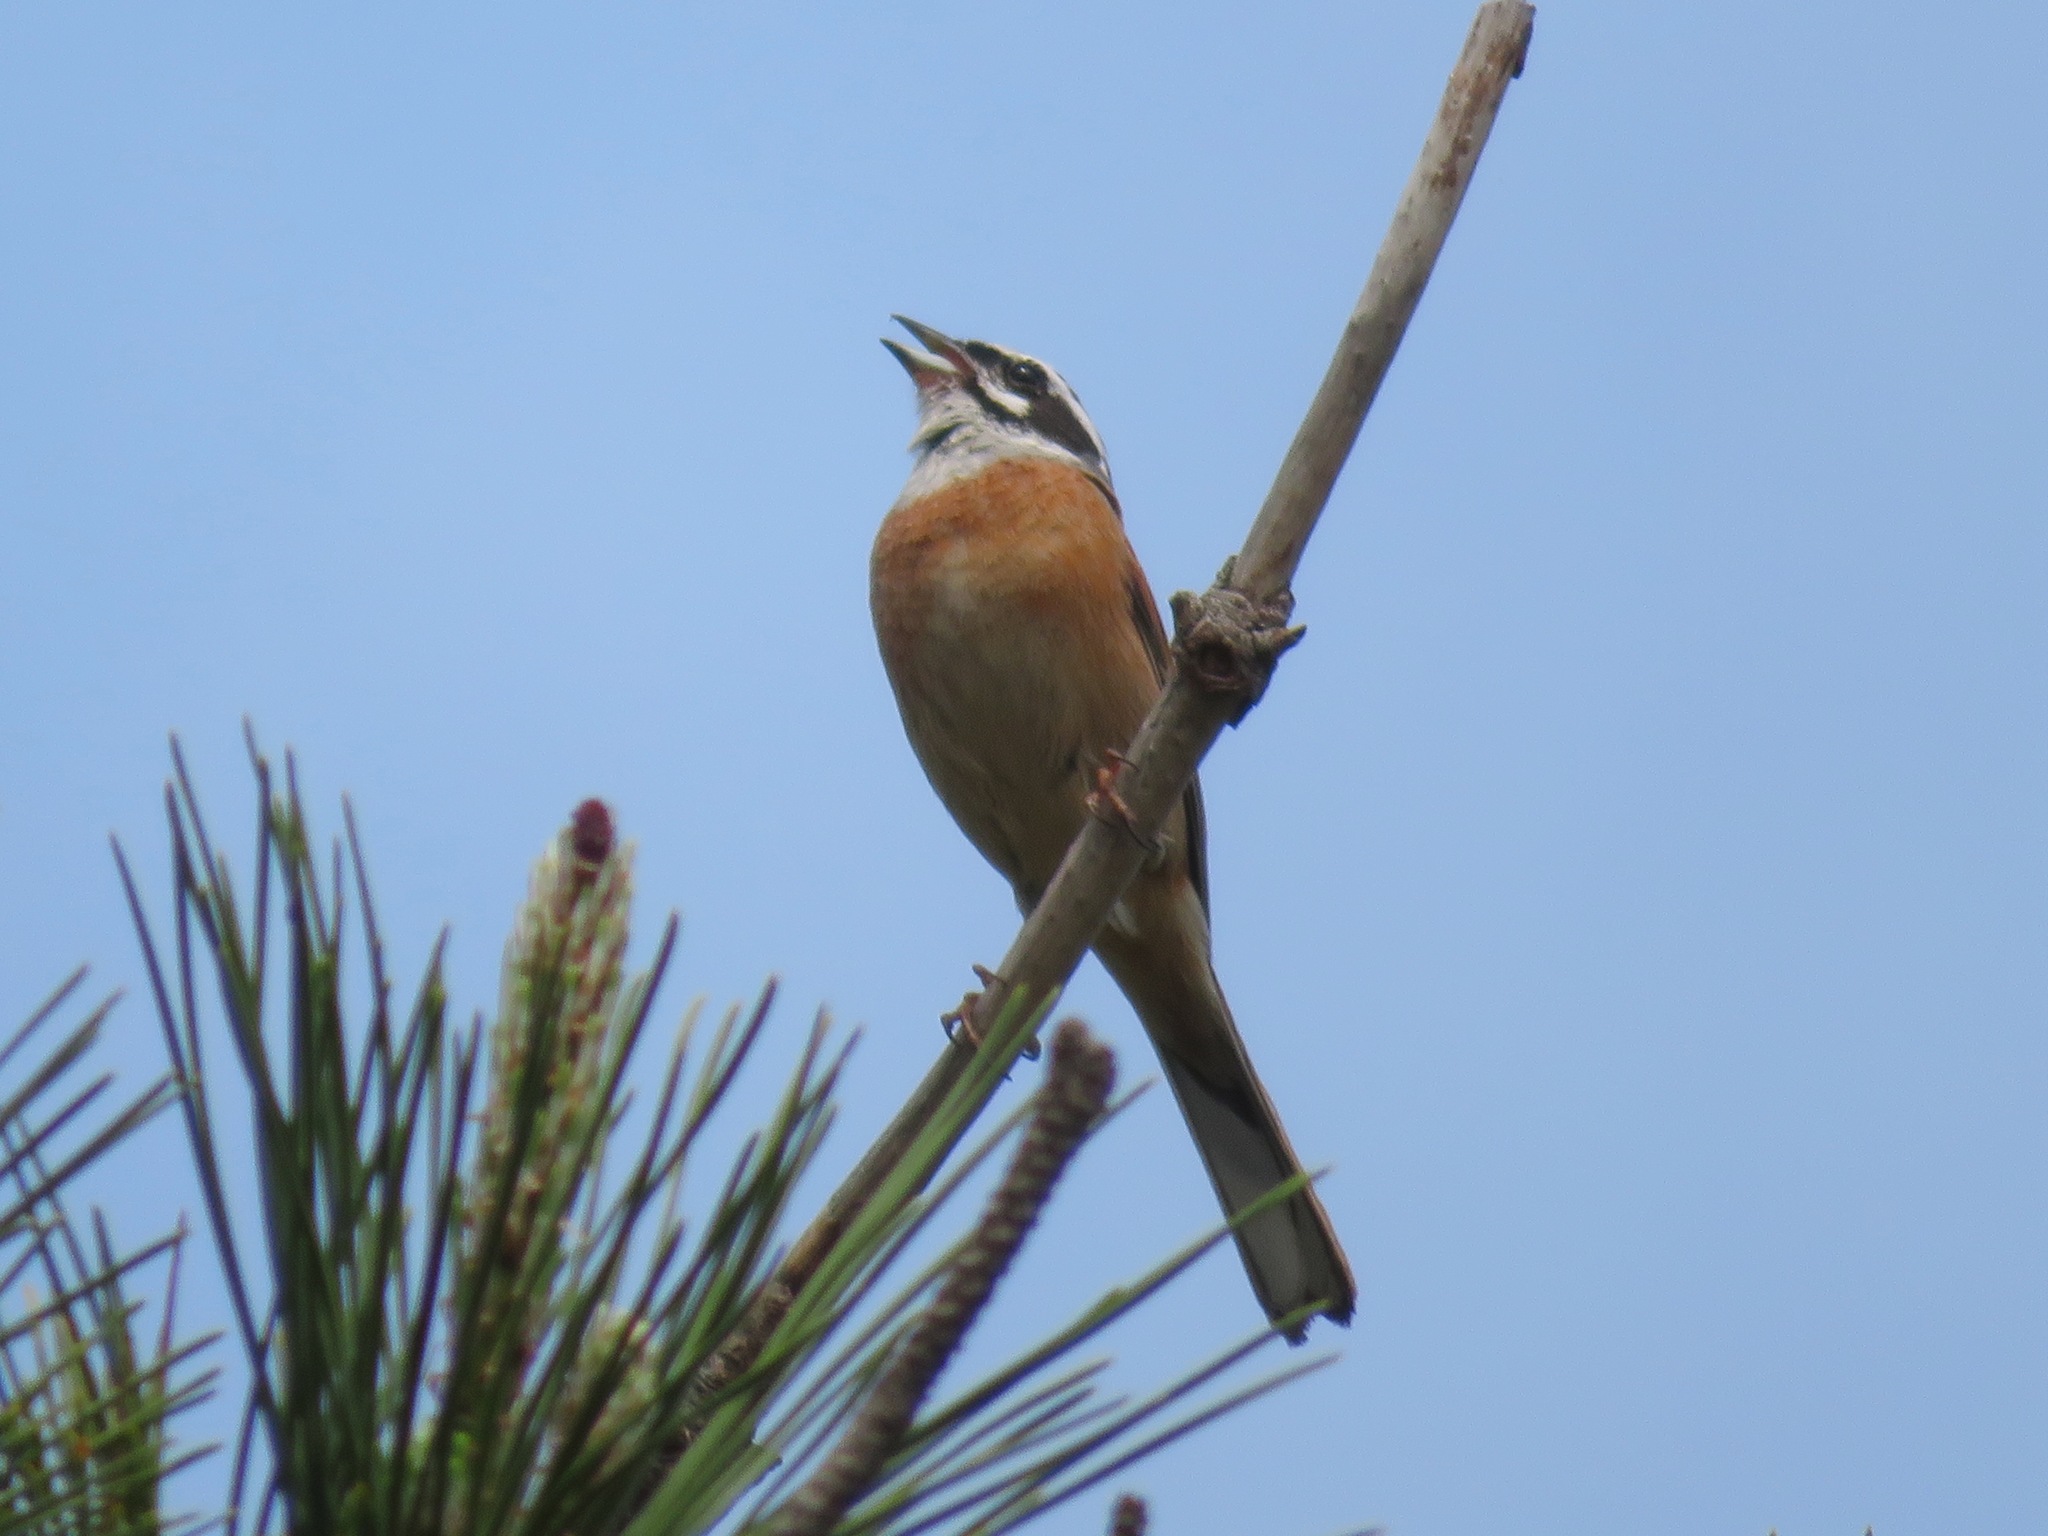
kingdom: Animalia
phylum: Chordata
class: Aves
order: Passeriformes
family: Emberizidae
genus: Emberiza
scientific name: Emberiza cioides
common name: Meadow bunting
